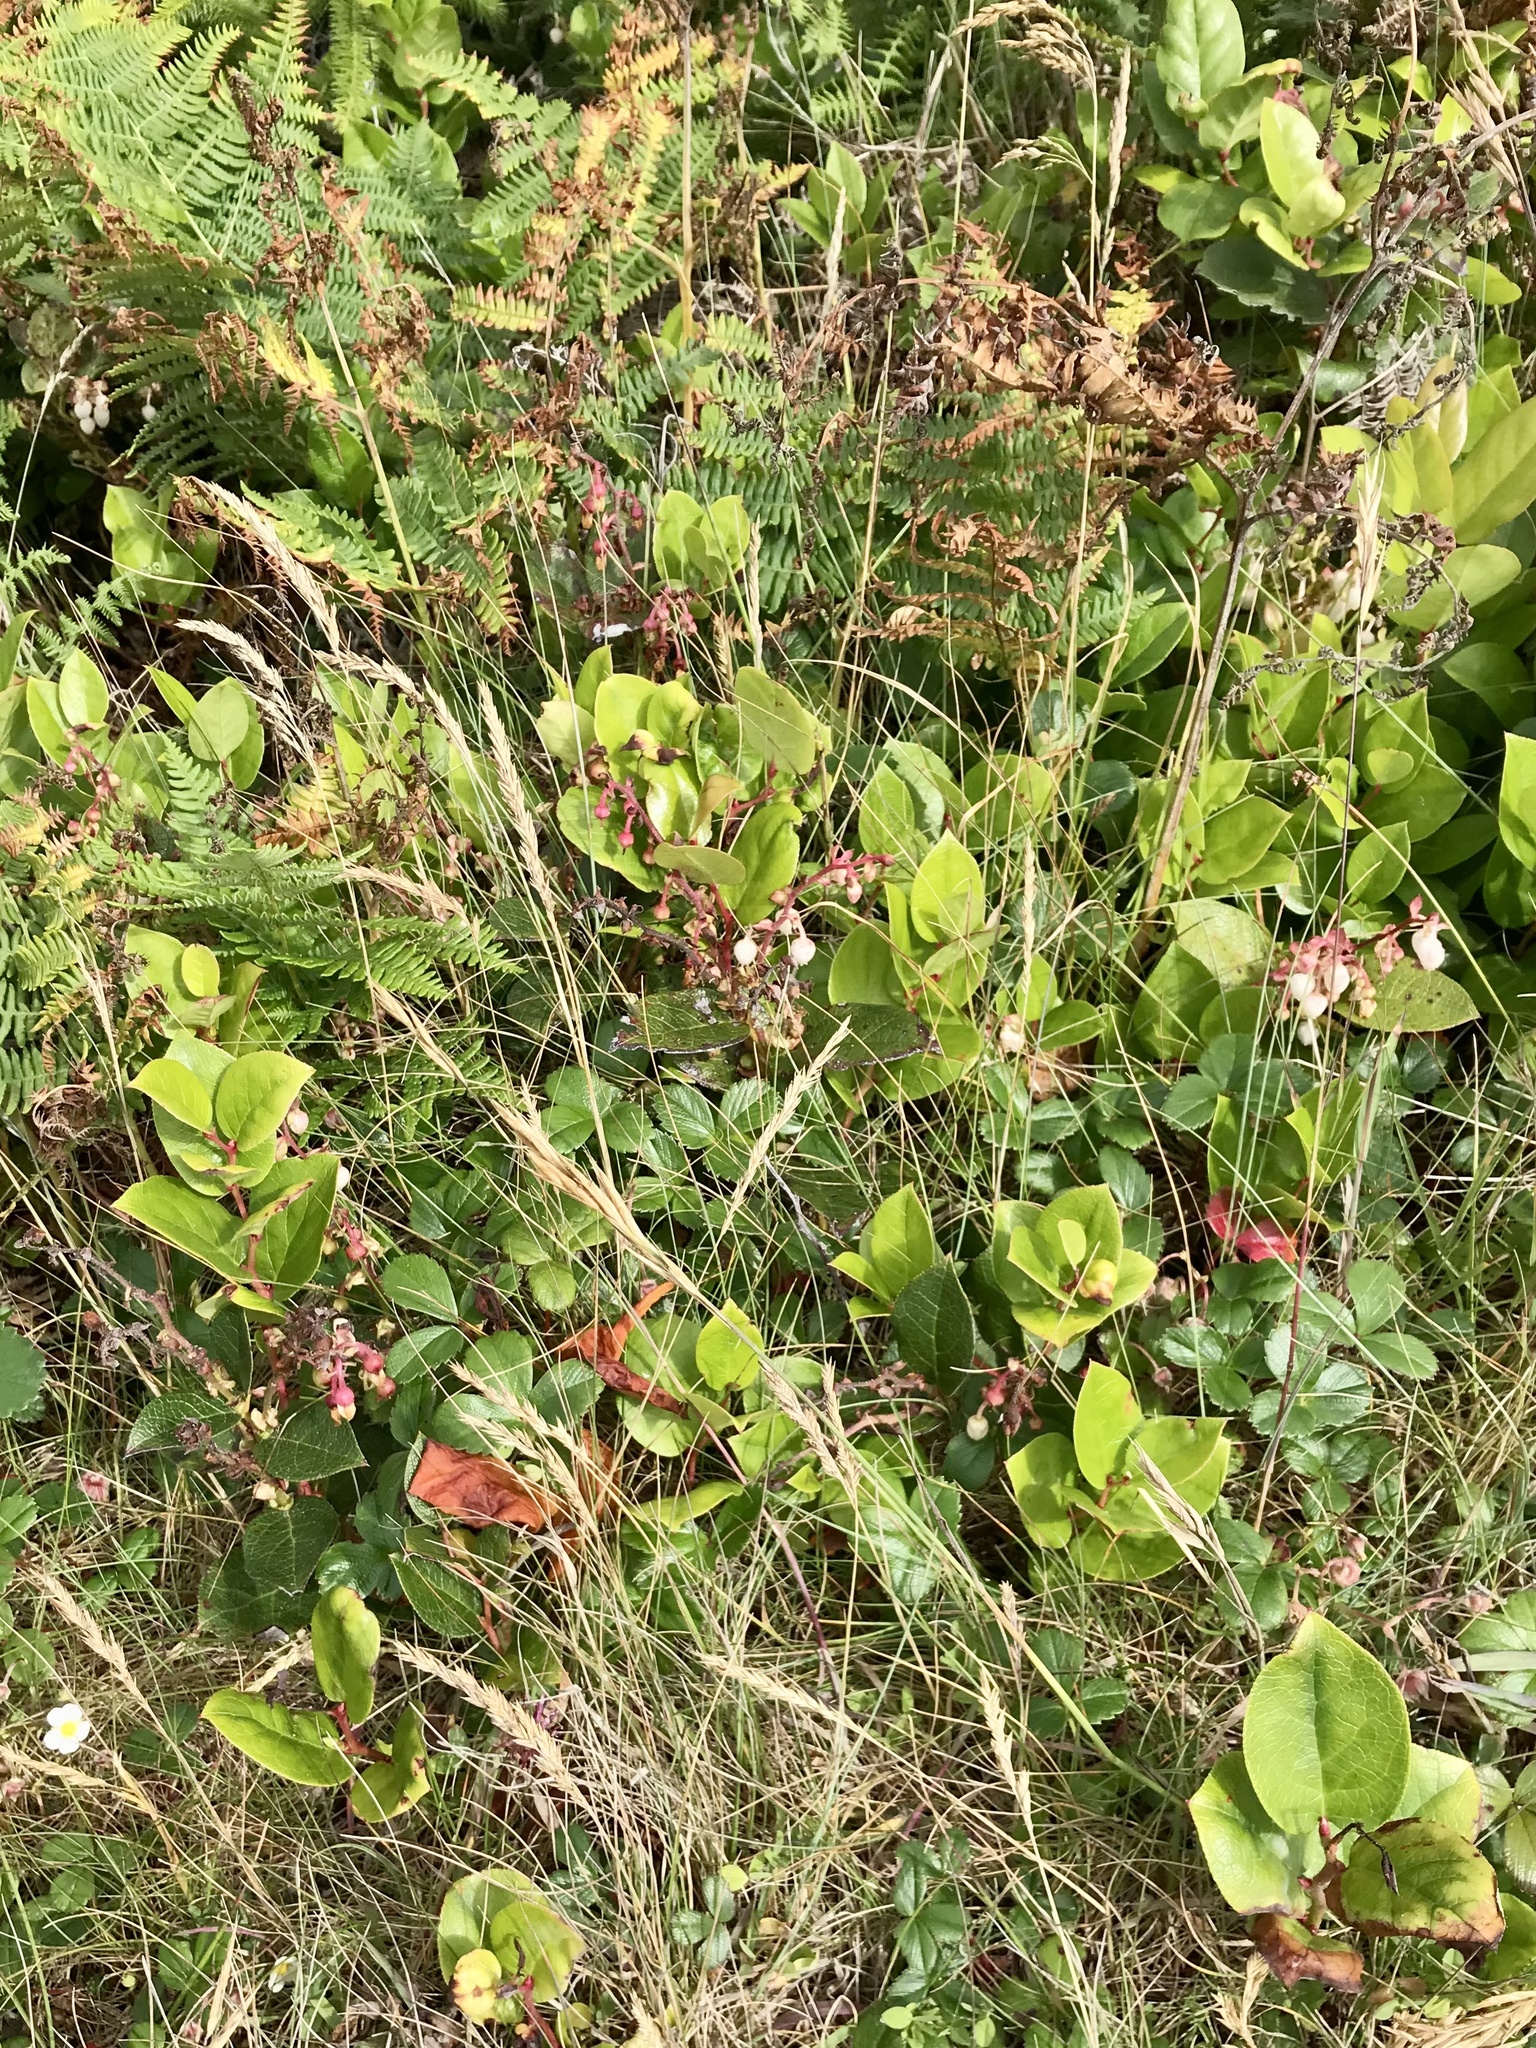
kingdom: Plantae
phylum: Tracheophyta
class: Magnoliopsida
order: Ericales
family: Ericaceae
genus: Gaultheria
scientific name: Gaultheria shallon
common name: Shallon
